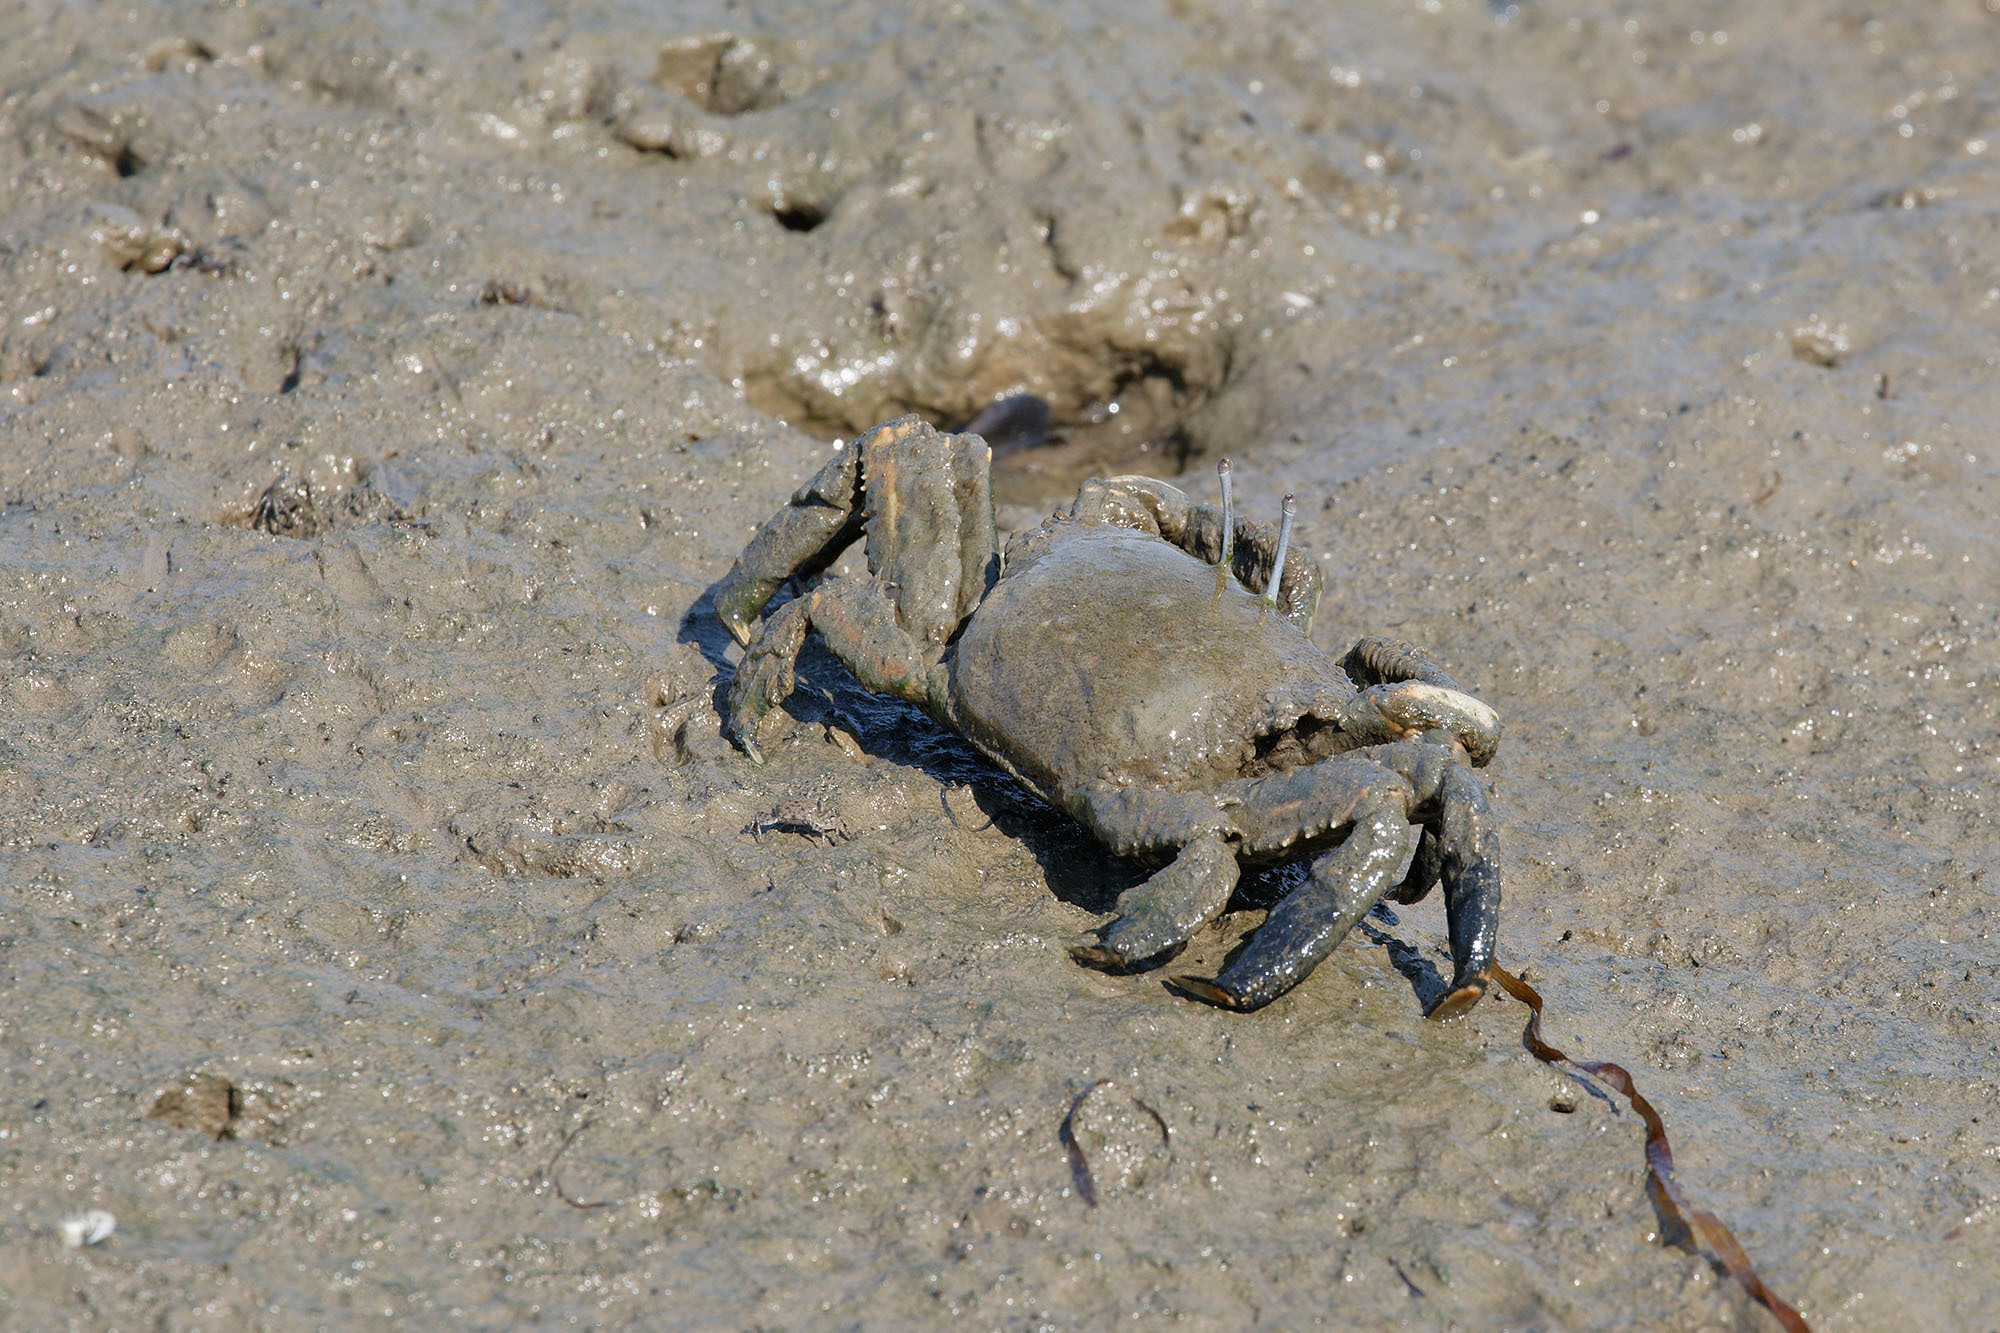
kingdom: Animalia
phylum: Arthropoda
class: Malacostraca
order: Decapoda
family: Macrophthalmidae
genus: Venitus
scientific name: Venitus latreillei
